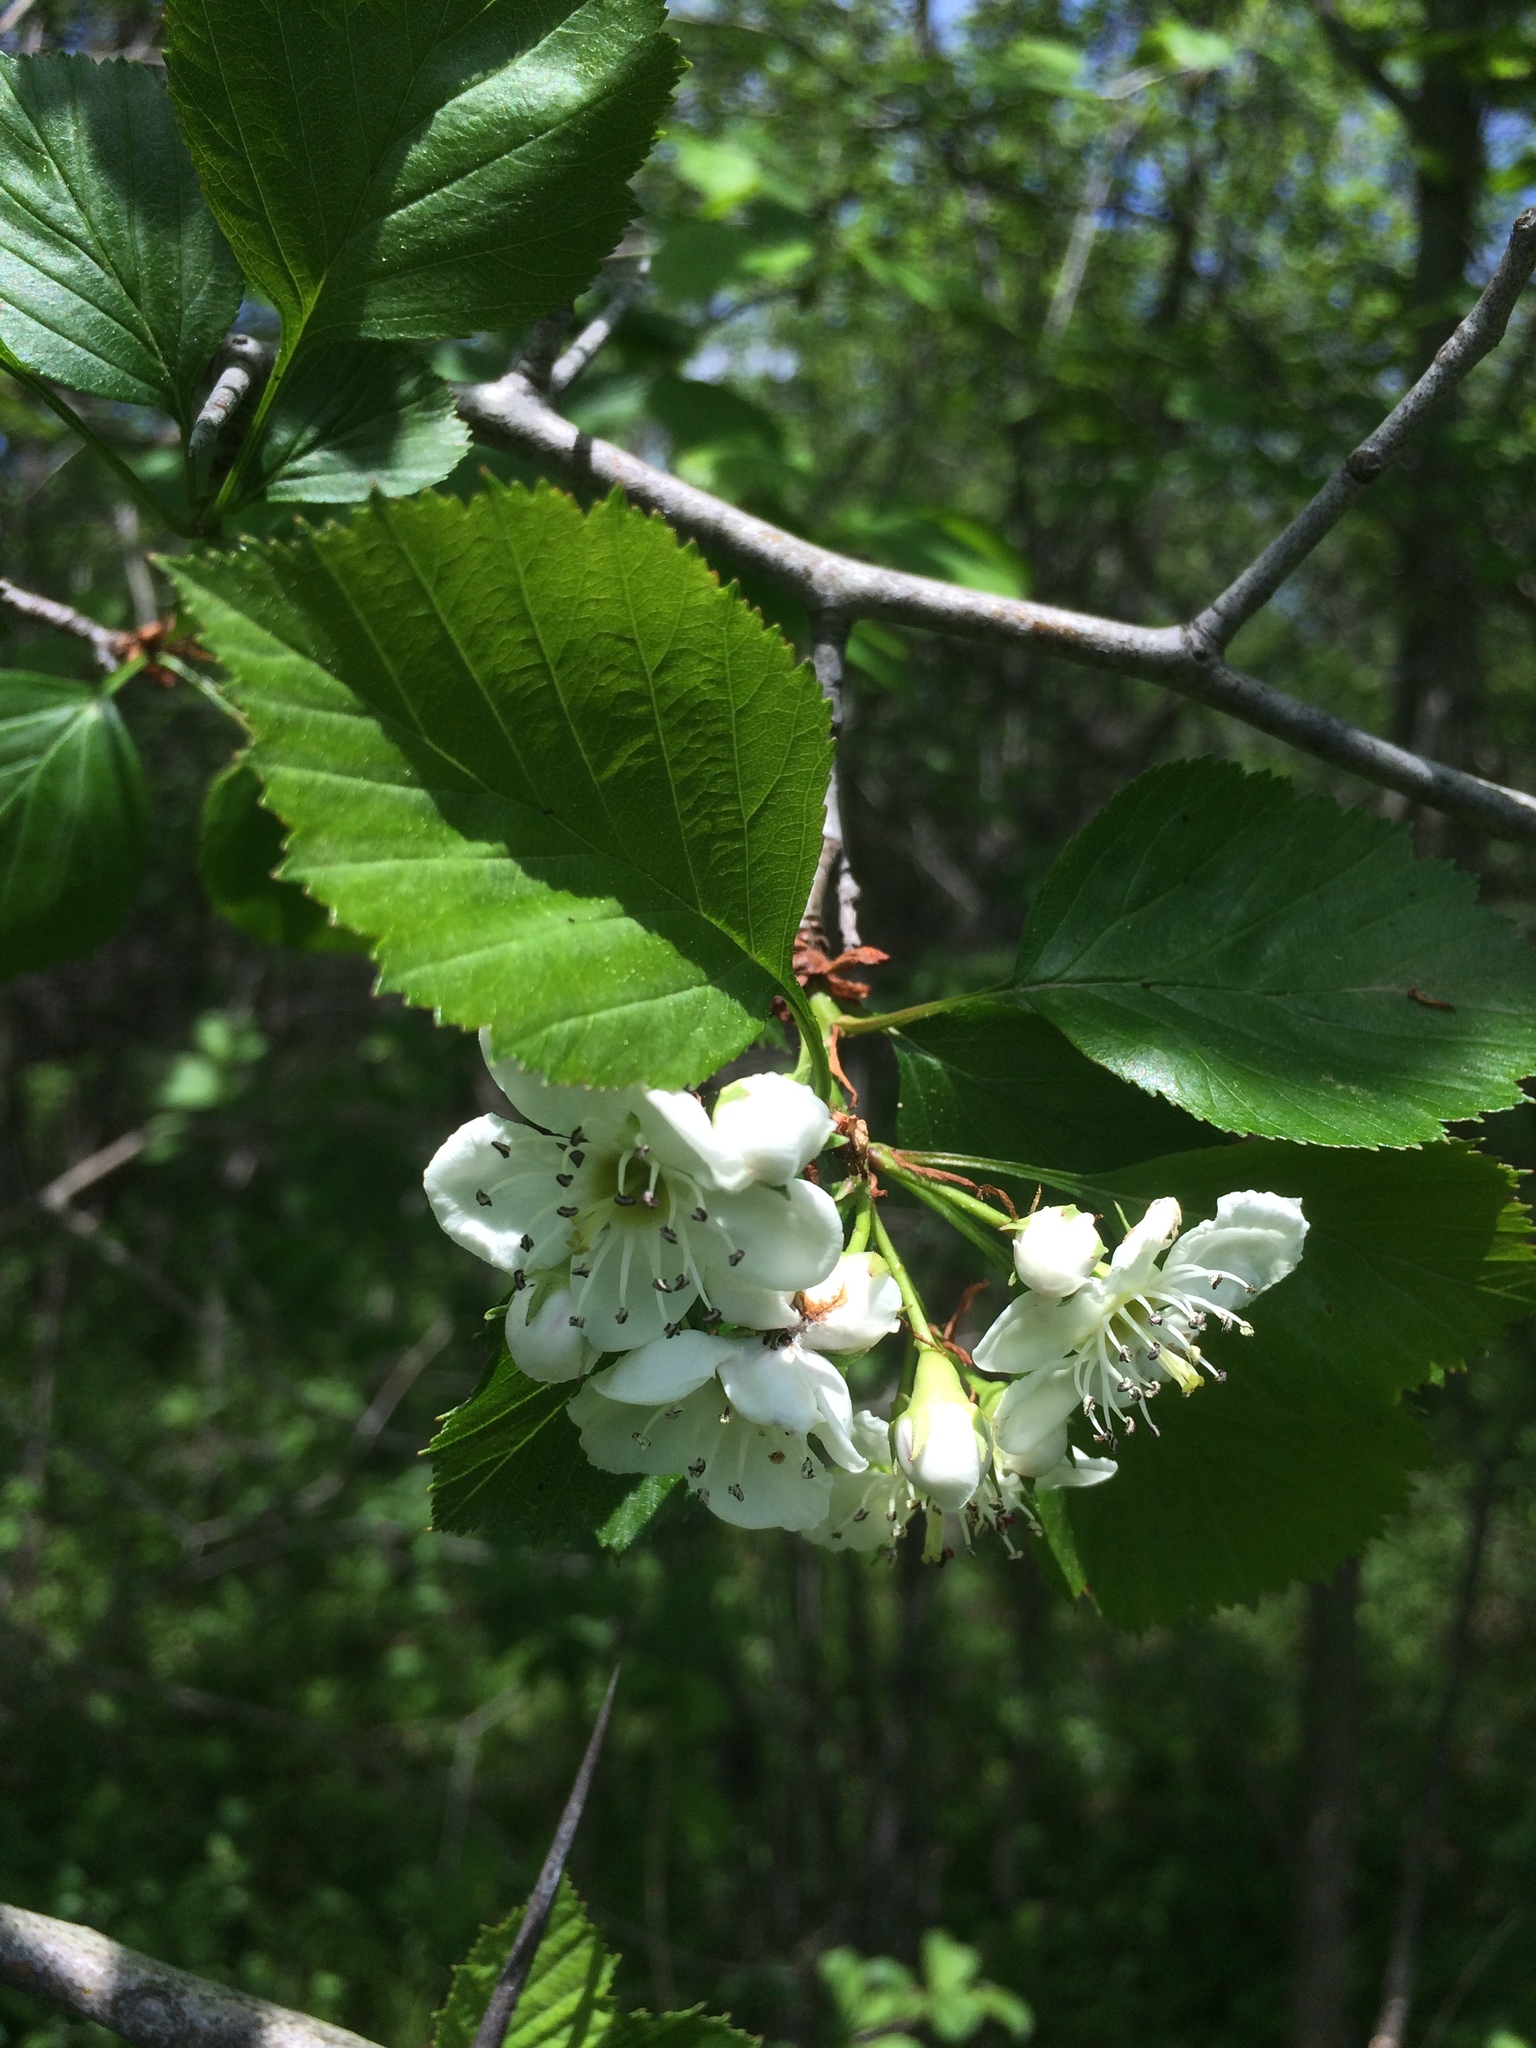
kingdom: Plantae
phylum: Tracheophyta
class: Magnoliopsida
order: Rosales
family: Rosaceae
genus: Crataegus
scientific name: Crataegus suborbiculata
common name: Caughnawaga hawthorn
